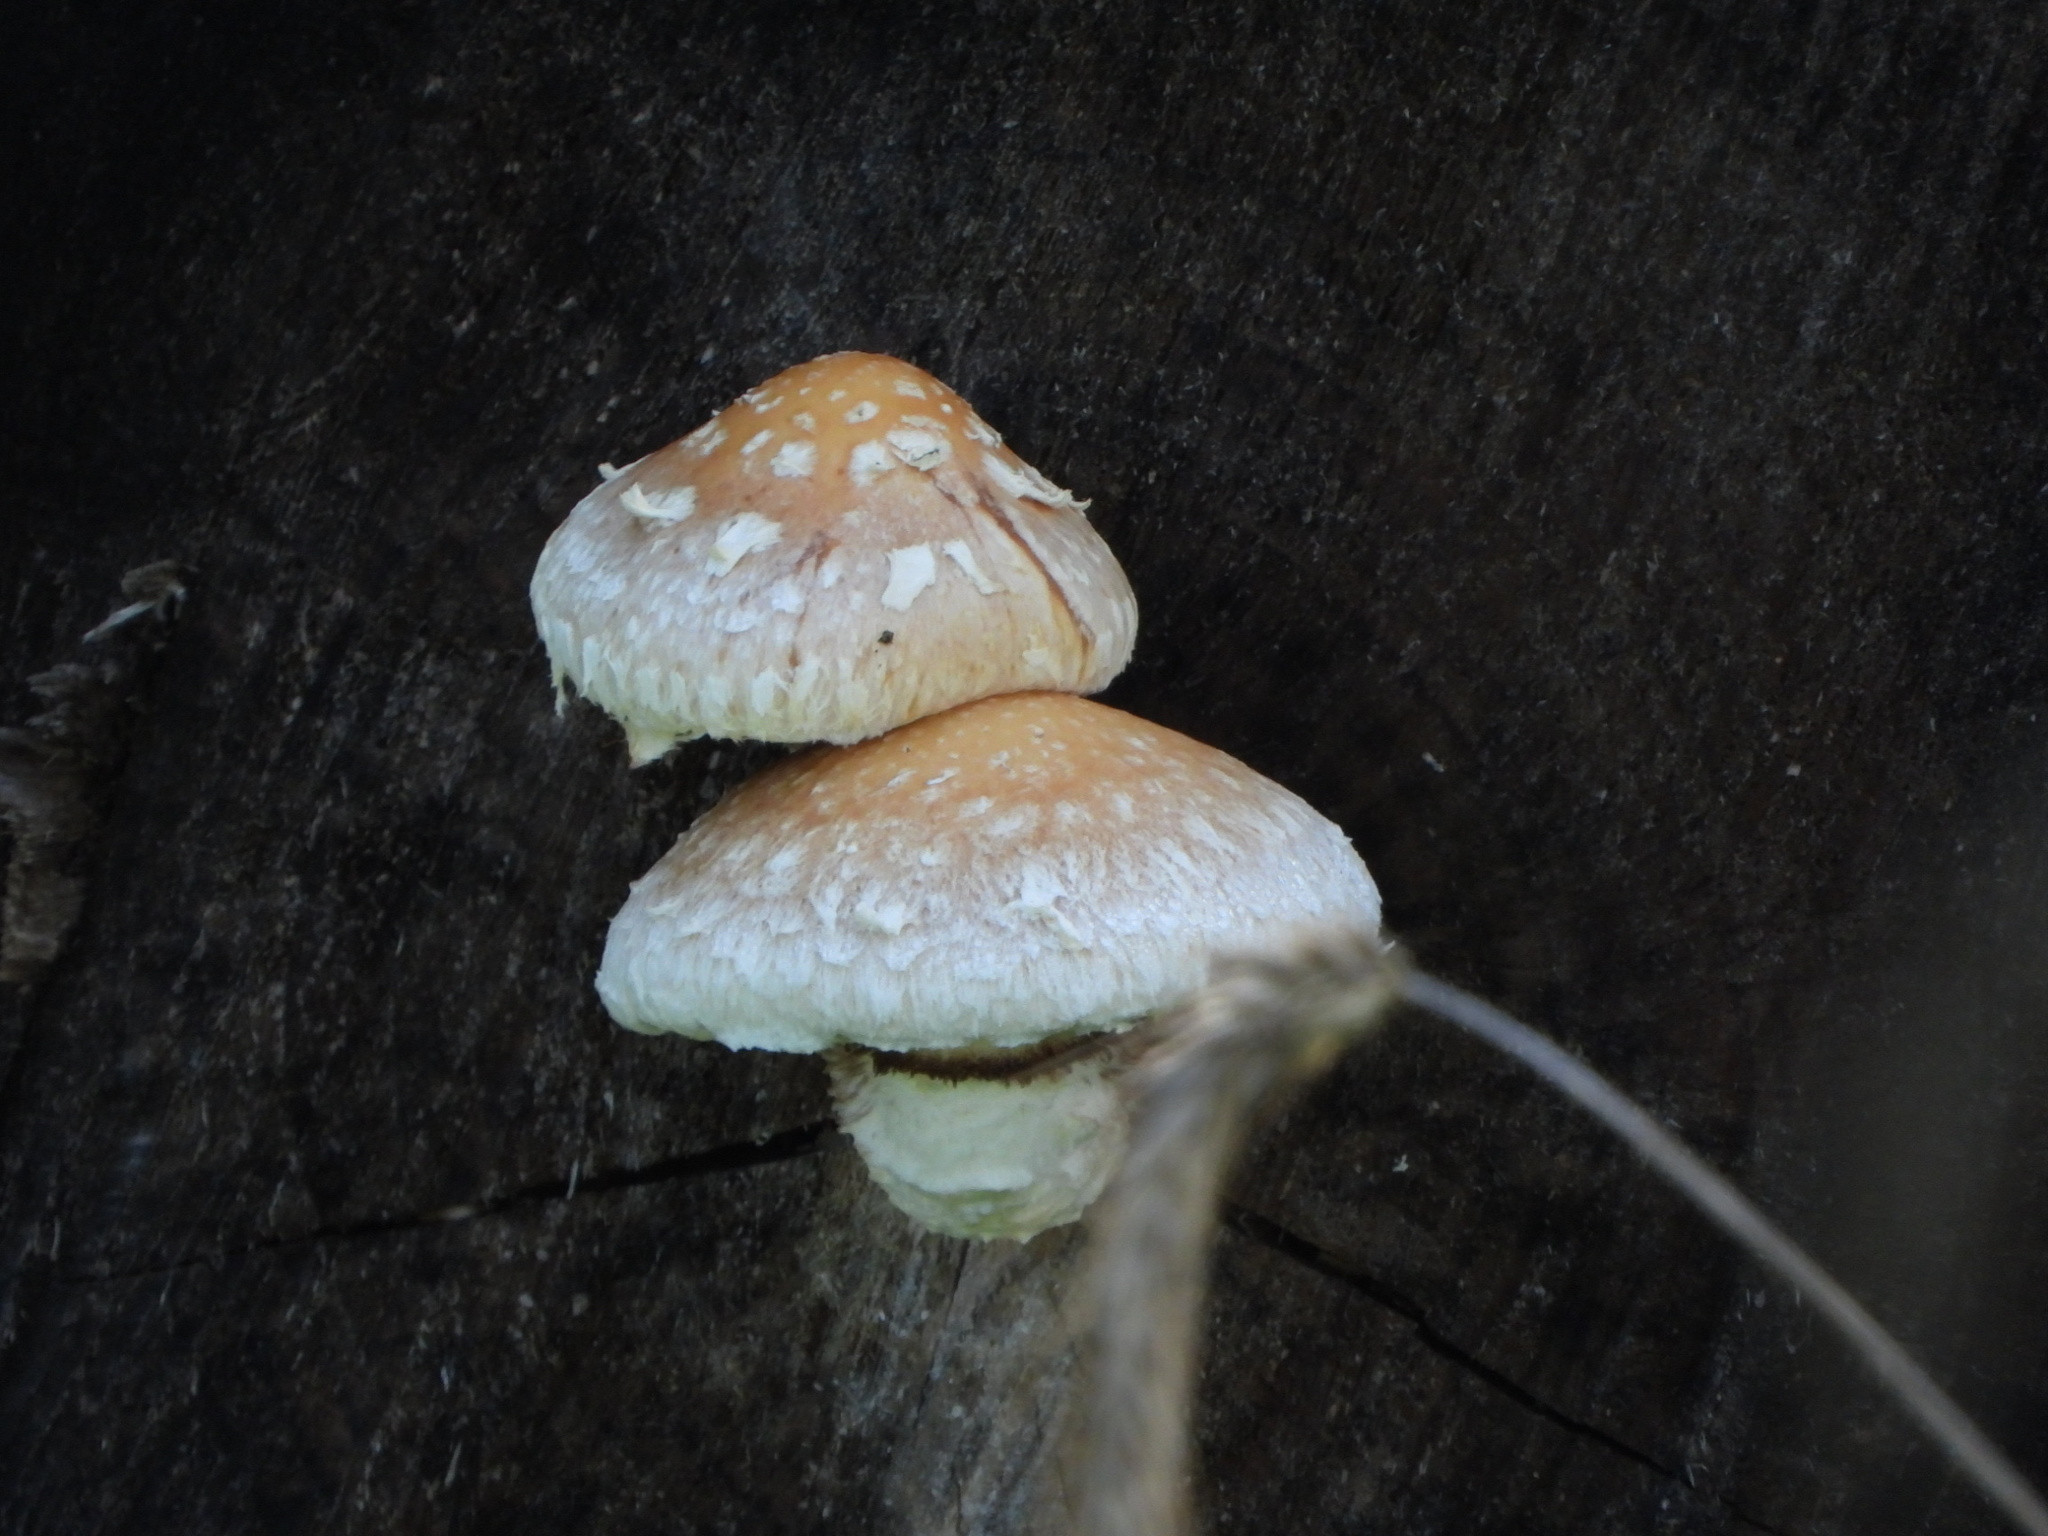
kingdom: Fungi
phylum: Basidiomycota
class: Agaricomycetes
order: Agaricales
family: Strophariaceae
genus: Pholiota
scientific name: Pholiota populnea
